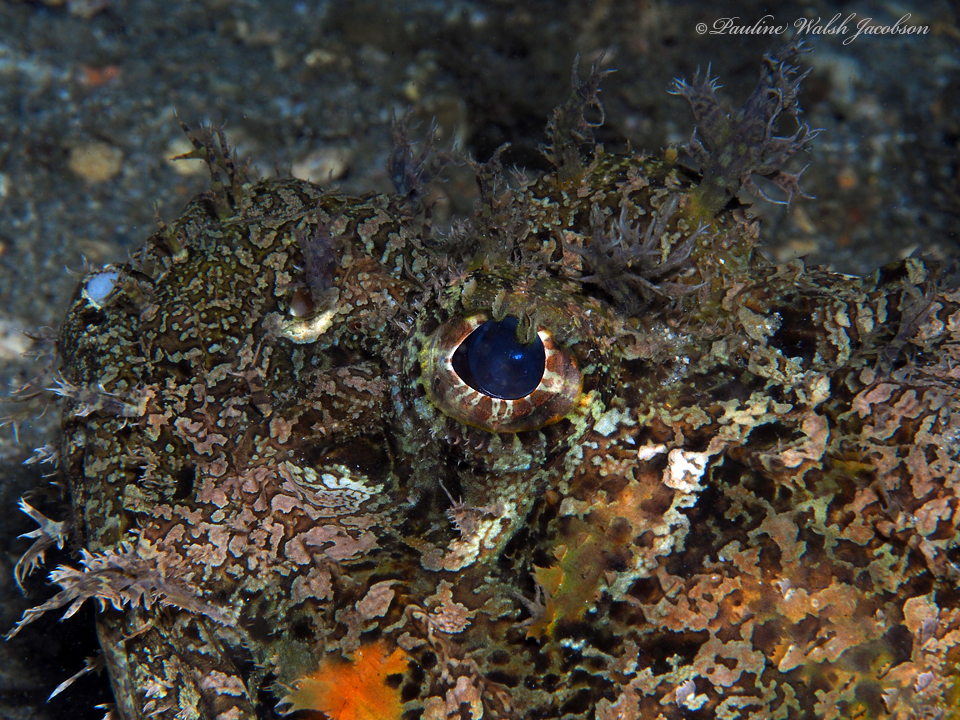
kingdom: Animalia
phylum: Chordata
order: Scorpaeniformes
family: Scorpaenidae
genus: Scorpaena
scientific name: Scorpaena plumieri
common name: Spotted scorpionfish
